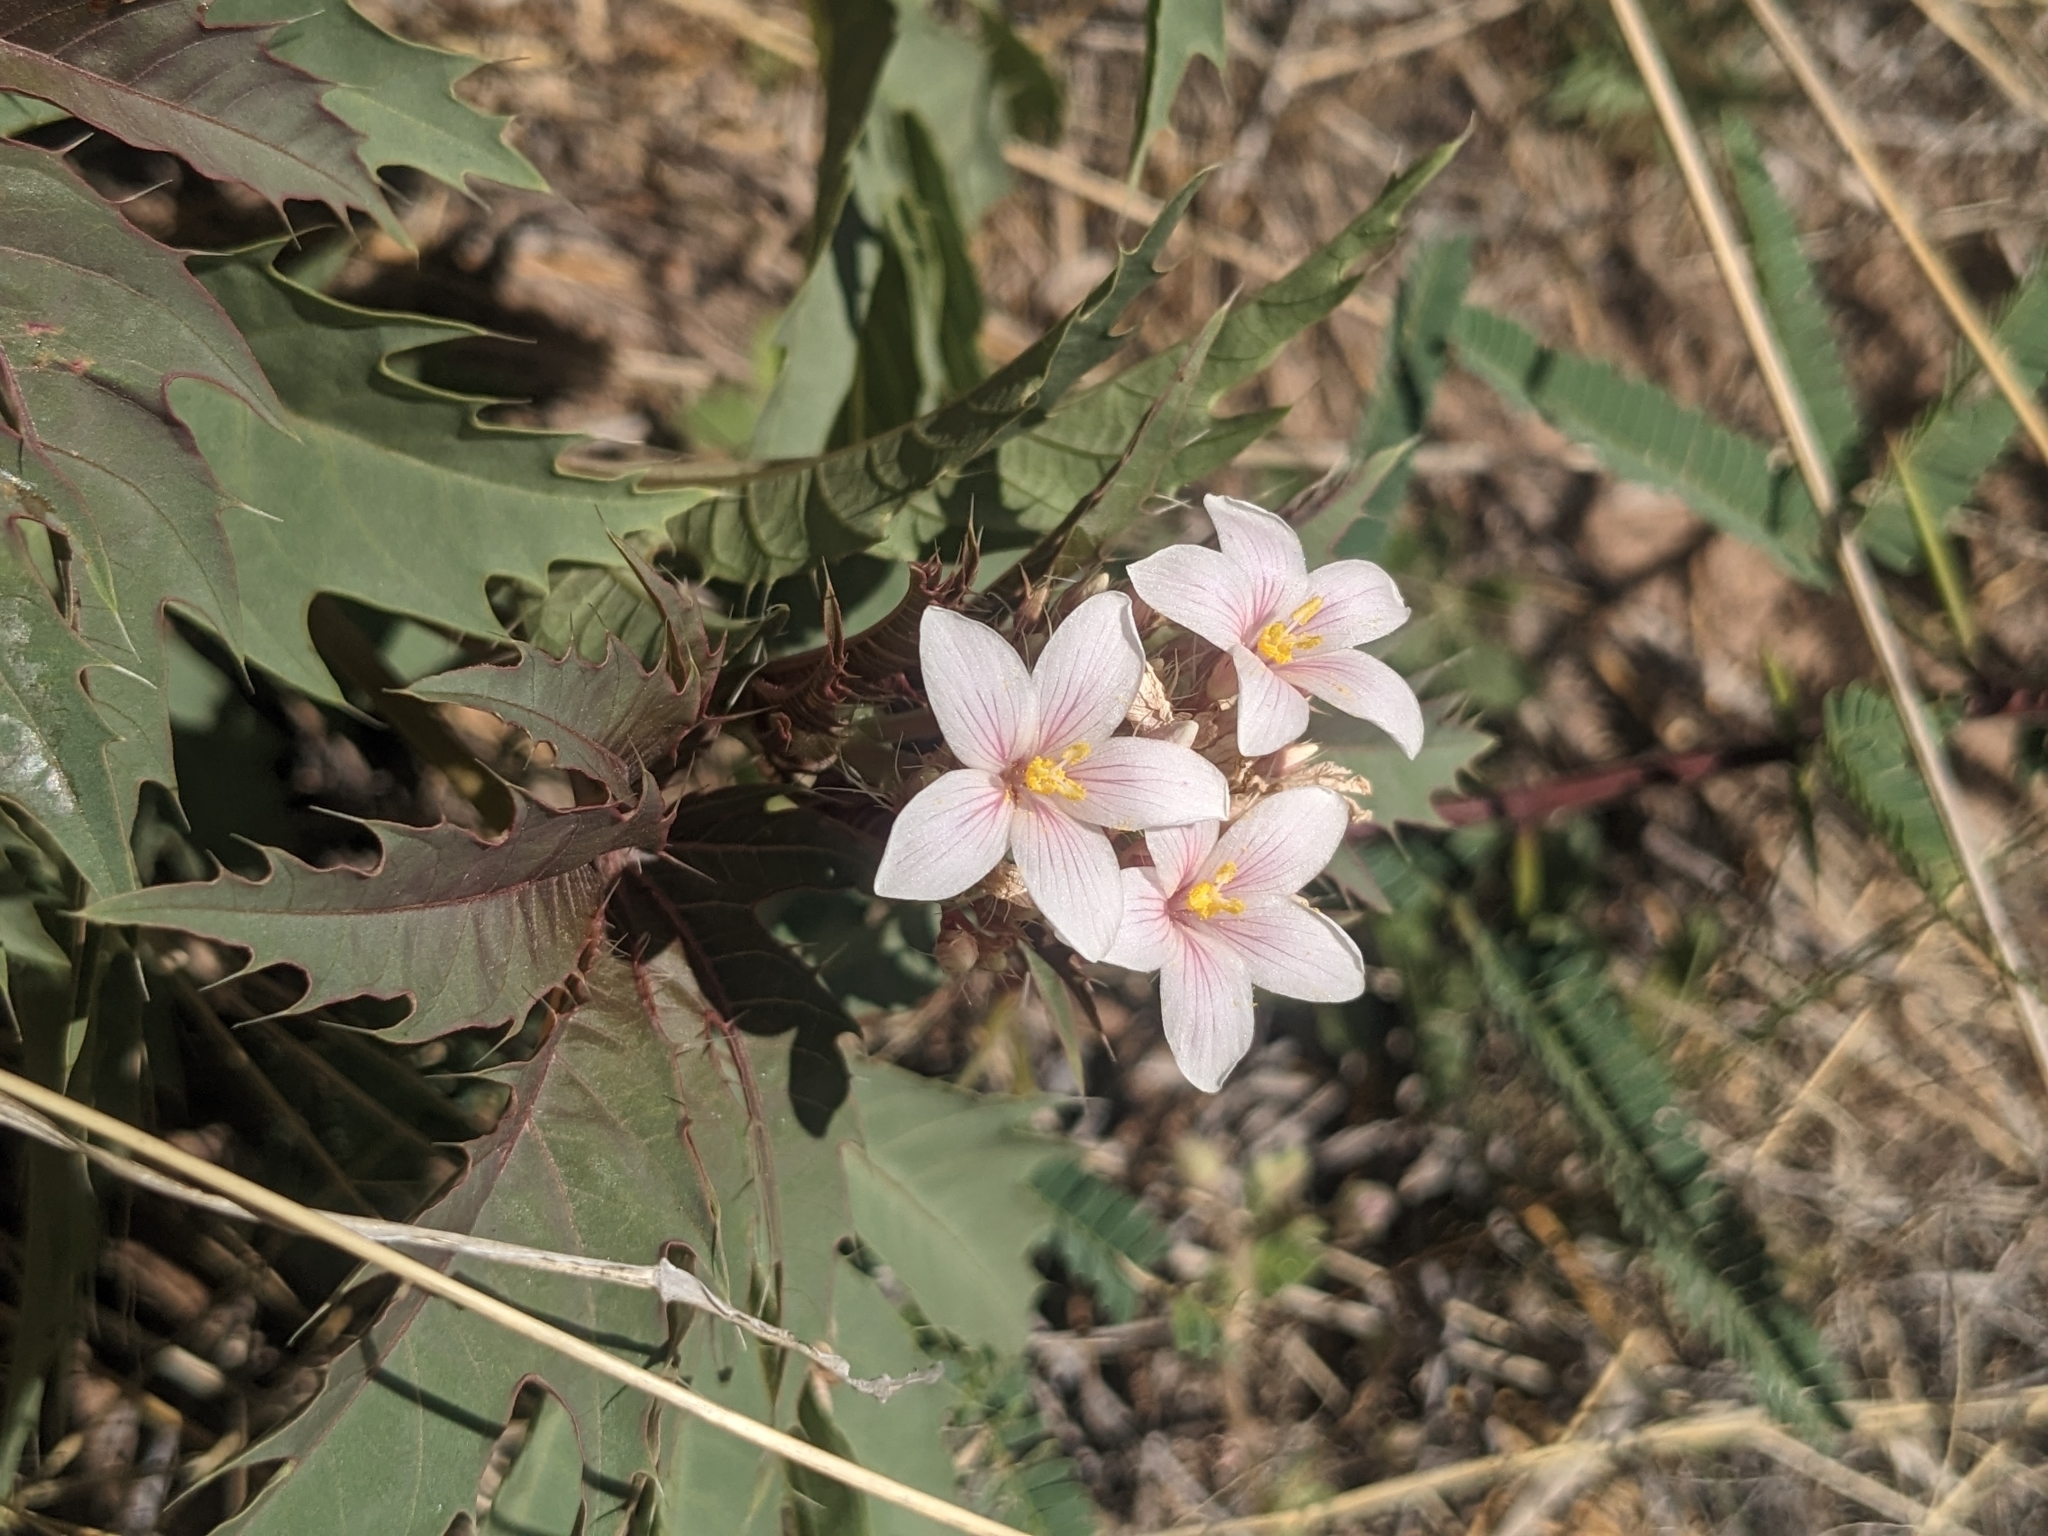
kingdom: Plantae
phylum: Tracheophyta
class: Magnoliopsida
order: Malpighiales
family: Euphorbiaceae
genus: Jatropha
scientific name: Jatropha macrorhiza
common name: Ragged nettlespurge
